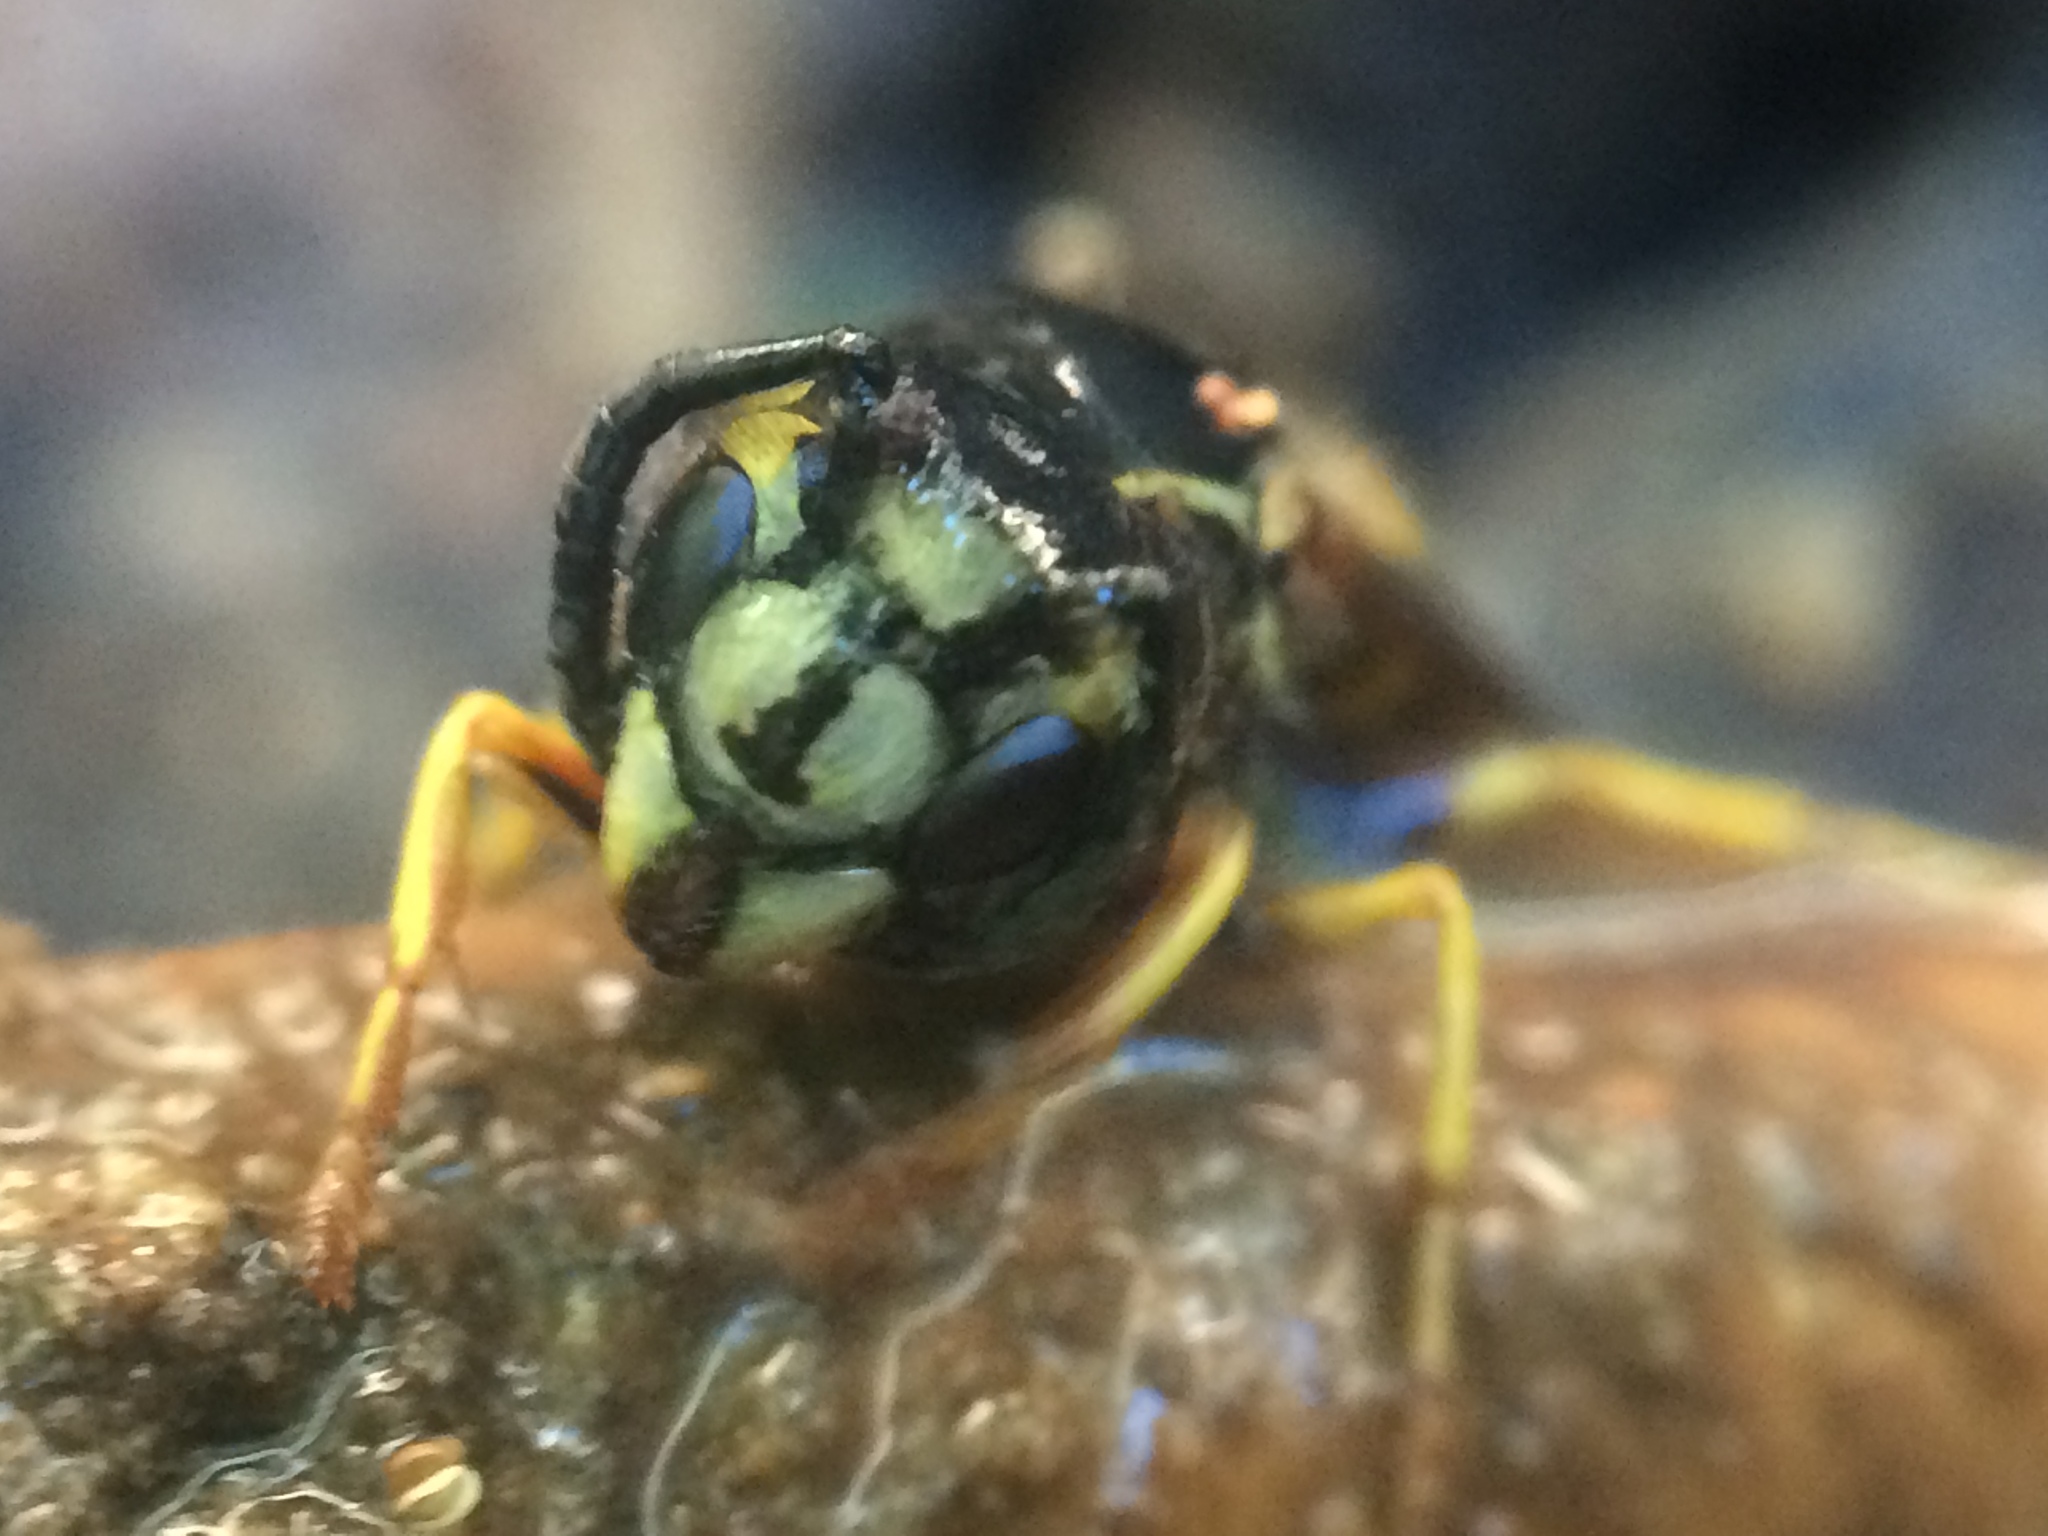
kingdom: Animalia
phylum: Arthropoda
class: Insecta
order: Hymenoptera
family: Vespidae
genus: Vespula
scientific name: Vespula alascensis
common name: Alaska yellowjacket
